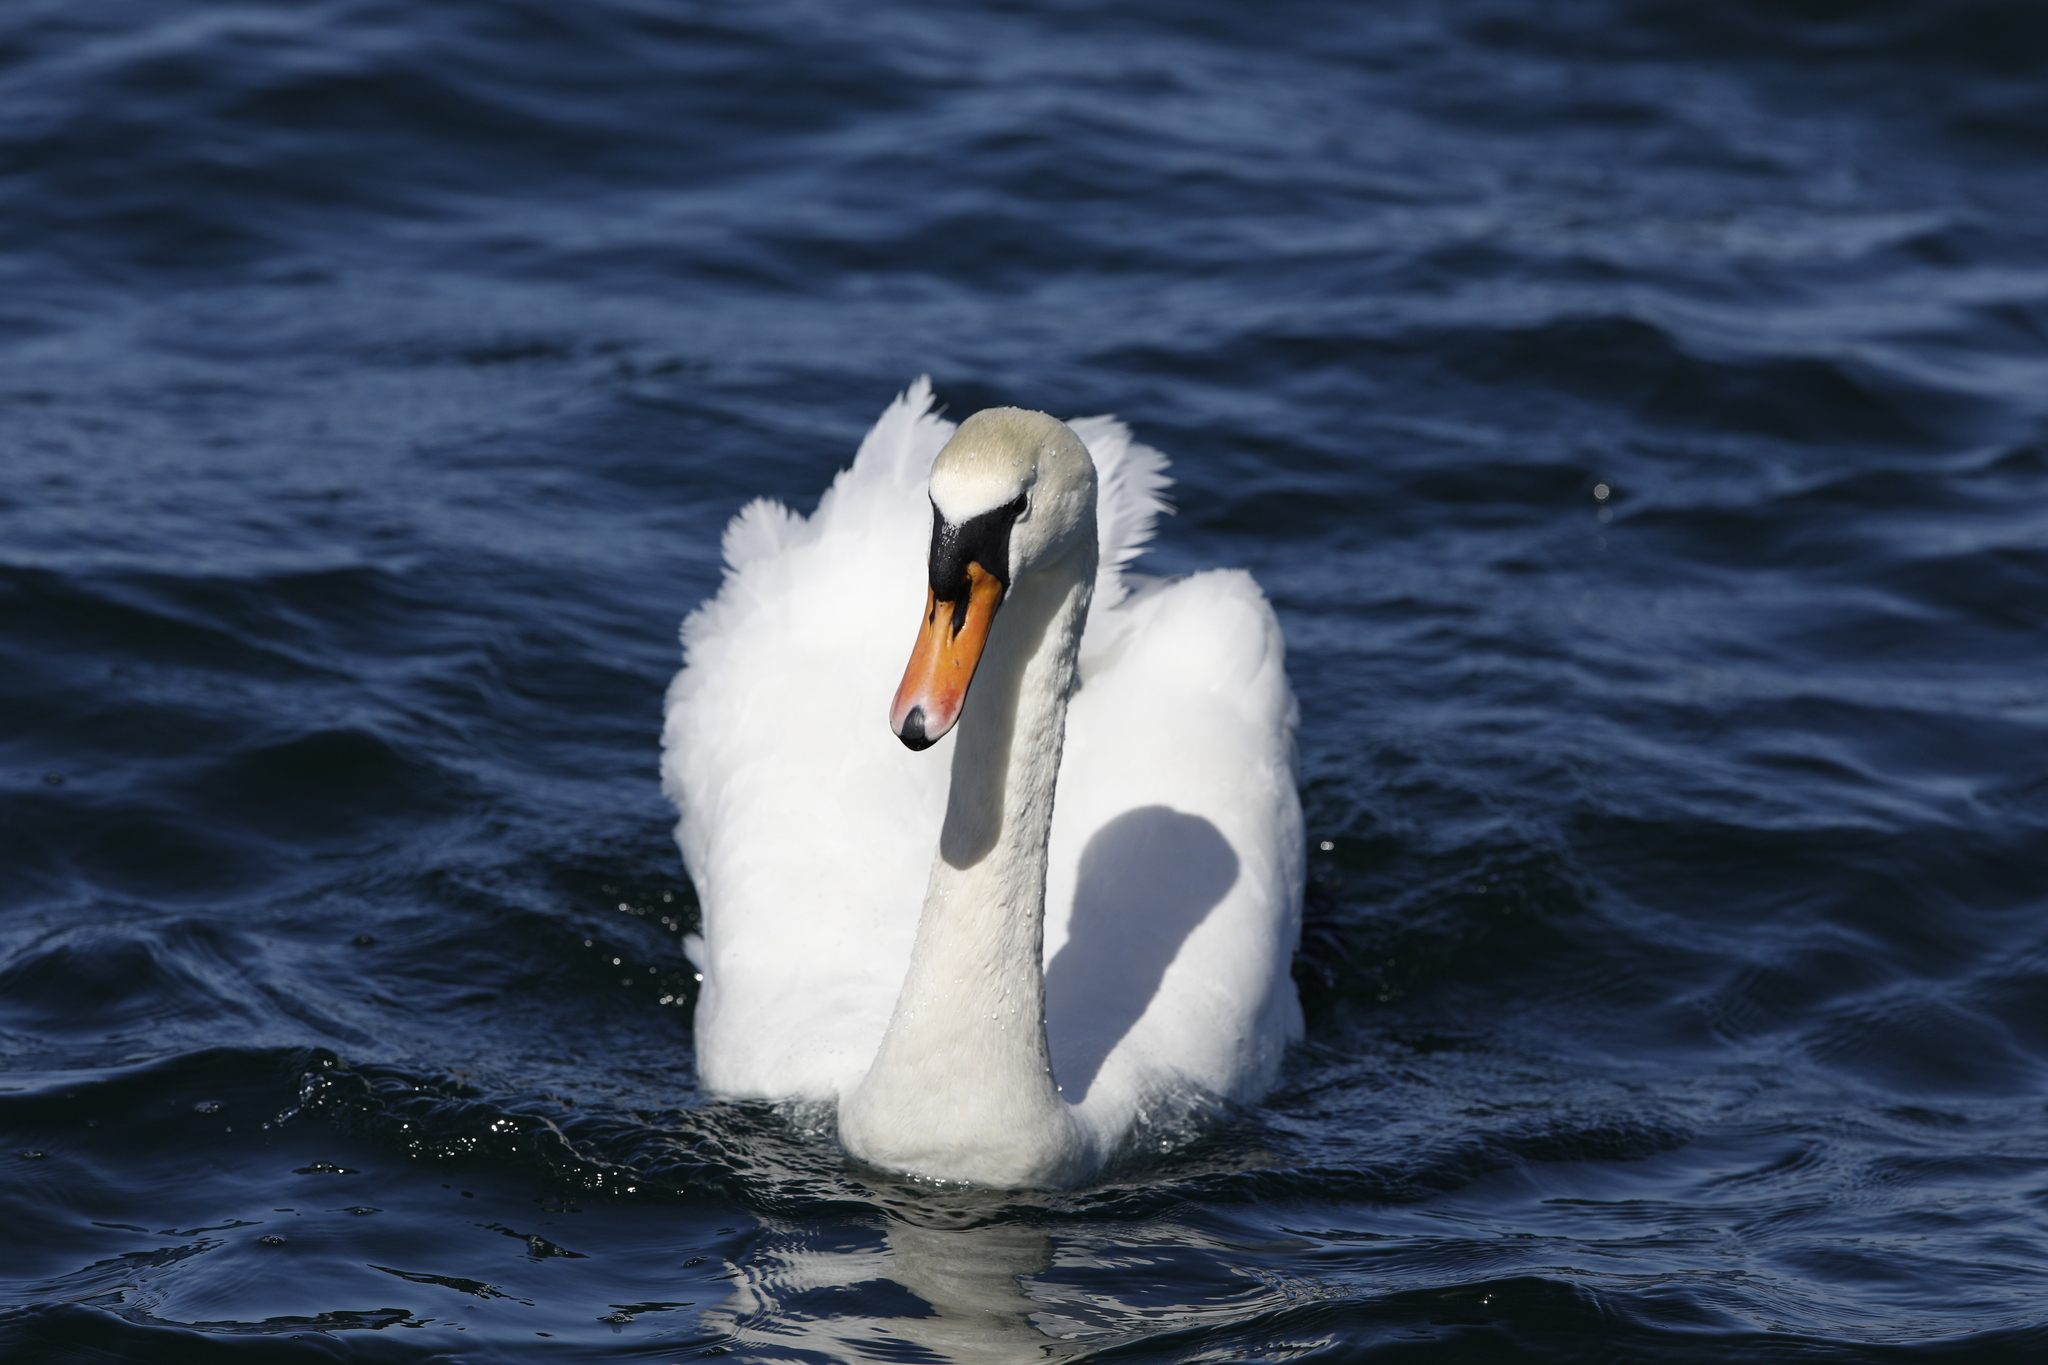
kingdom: Animalia
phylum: Chordata
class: Aves
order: Anseriformes
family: Anatidae
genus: Cygnus
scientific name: Cygnus olor
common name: Mute swan
